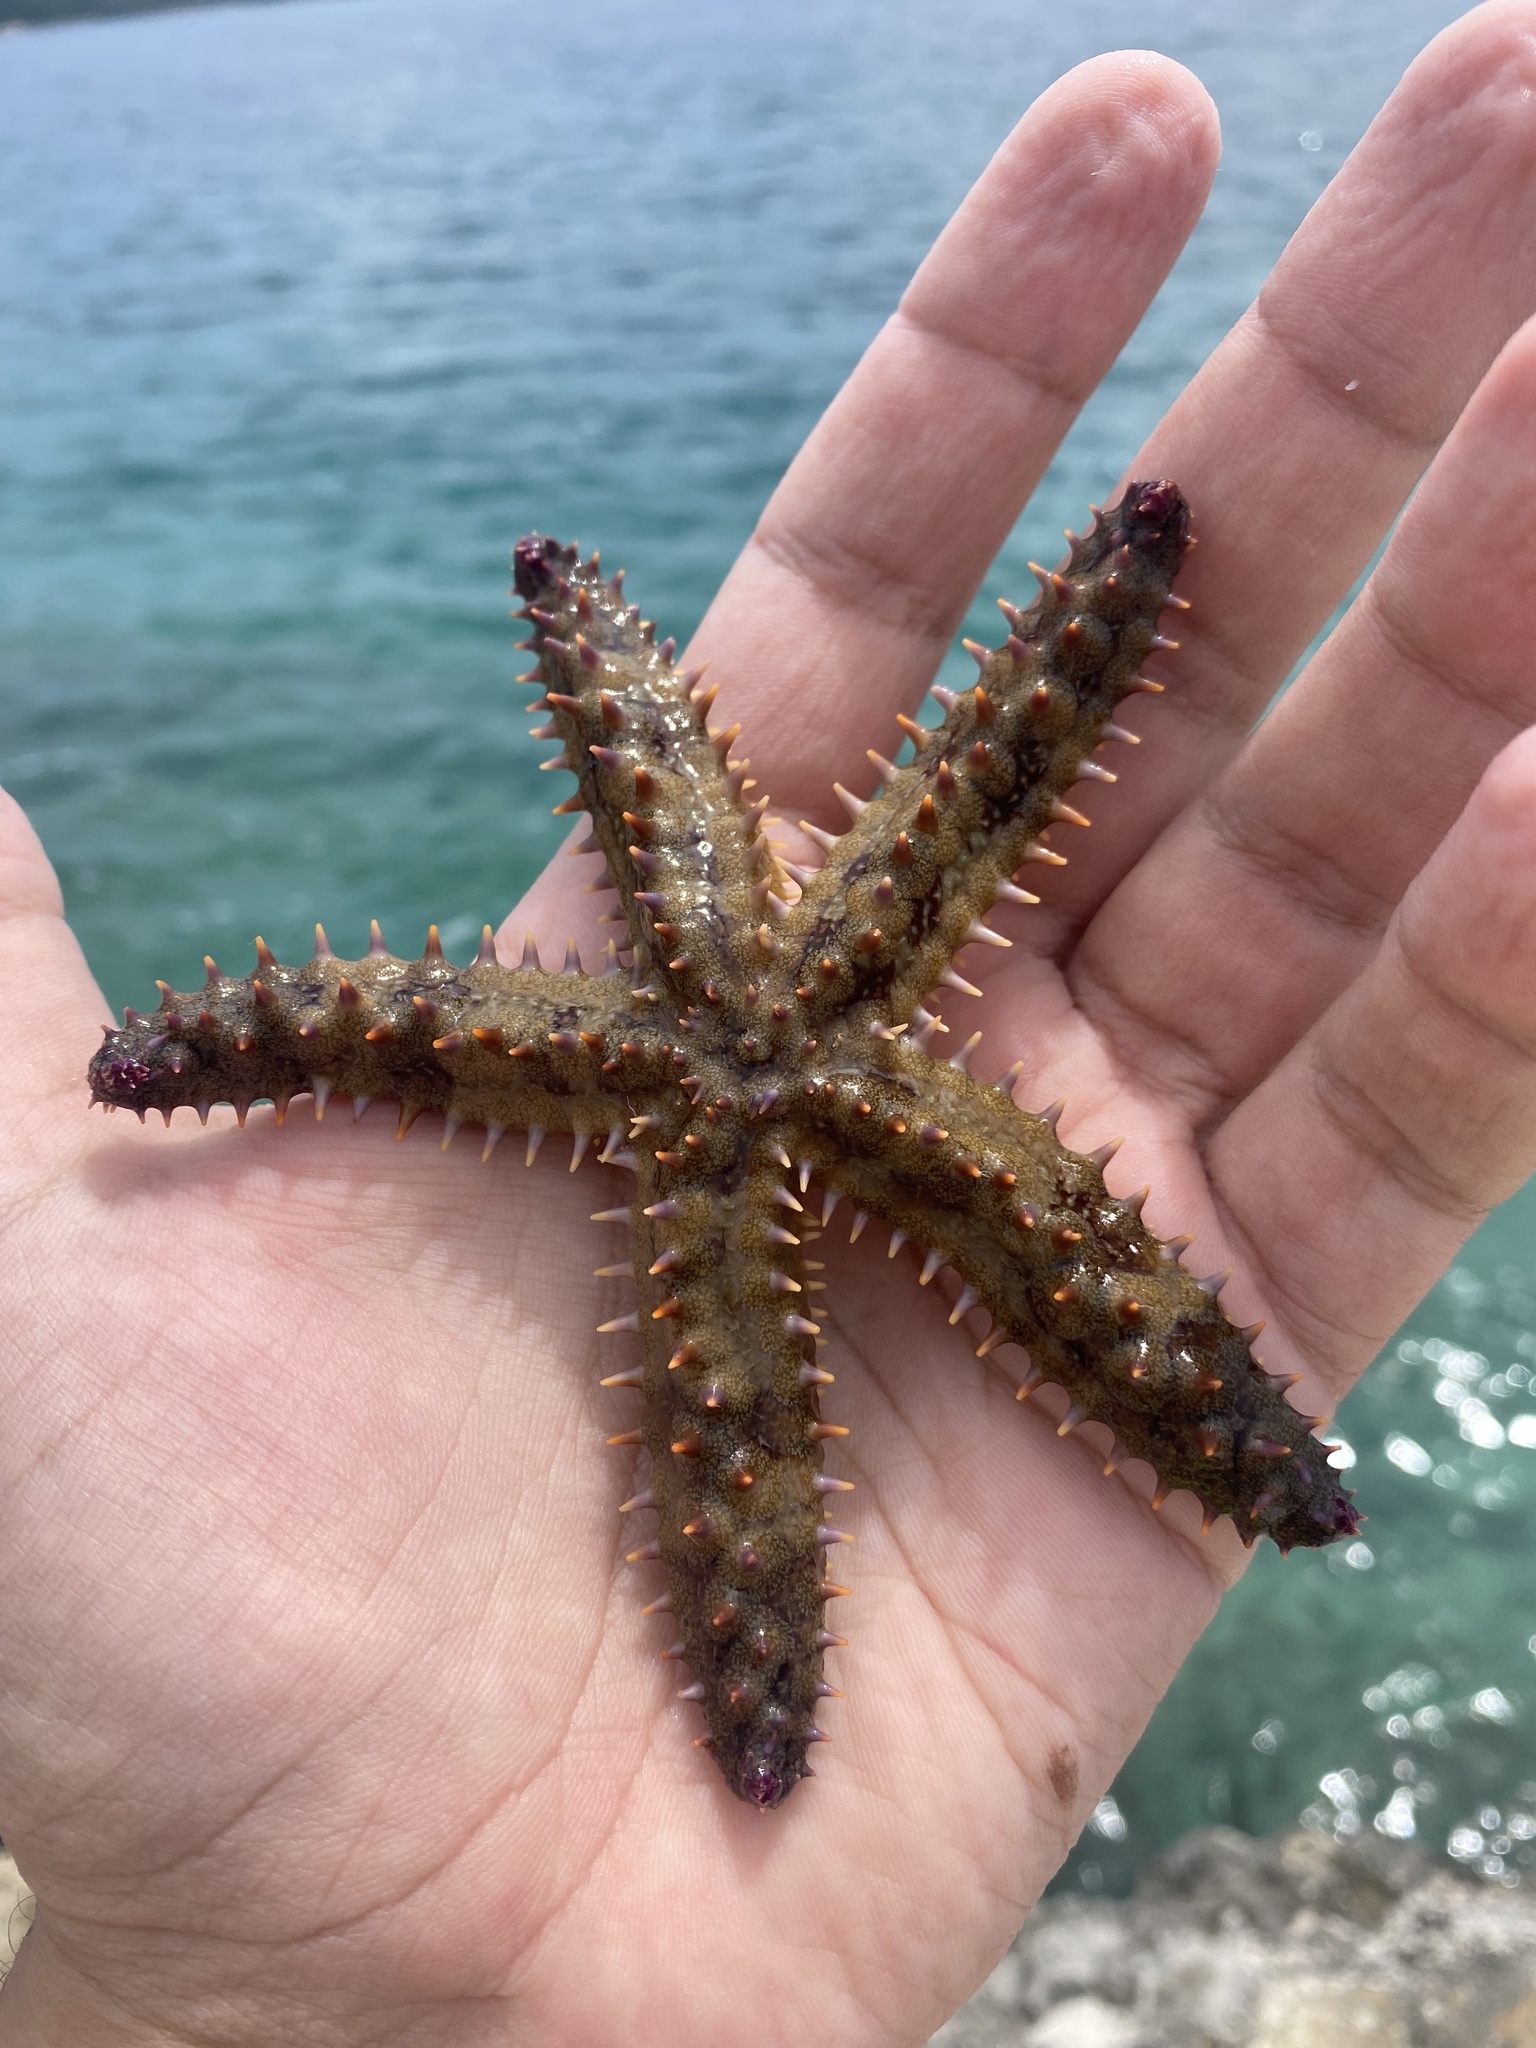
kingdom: Animalia
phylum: Echinodermata
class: Asteroidea
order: Forcipulatida
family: Asteriidae
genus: Marthasterias
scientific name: Marthasterias glacialis
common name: Spiny starfish
